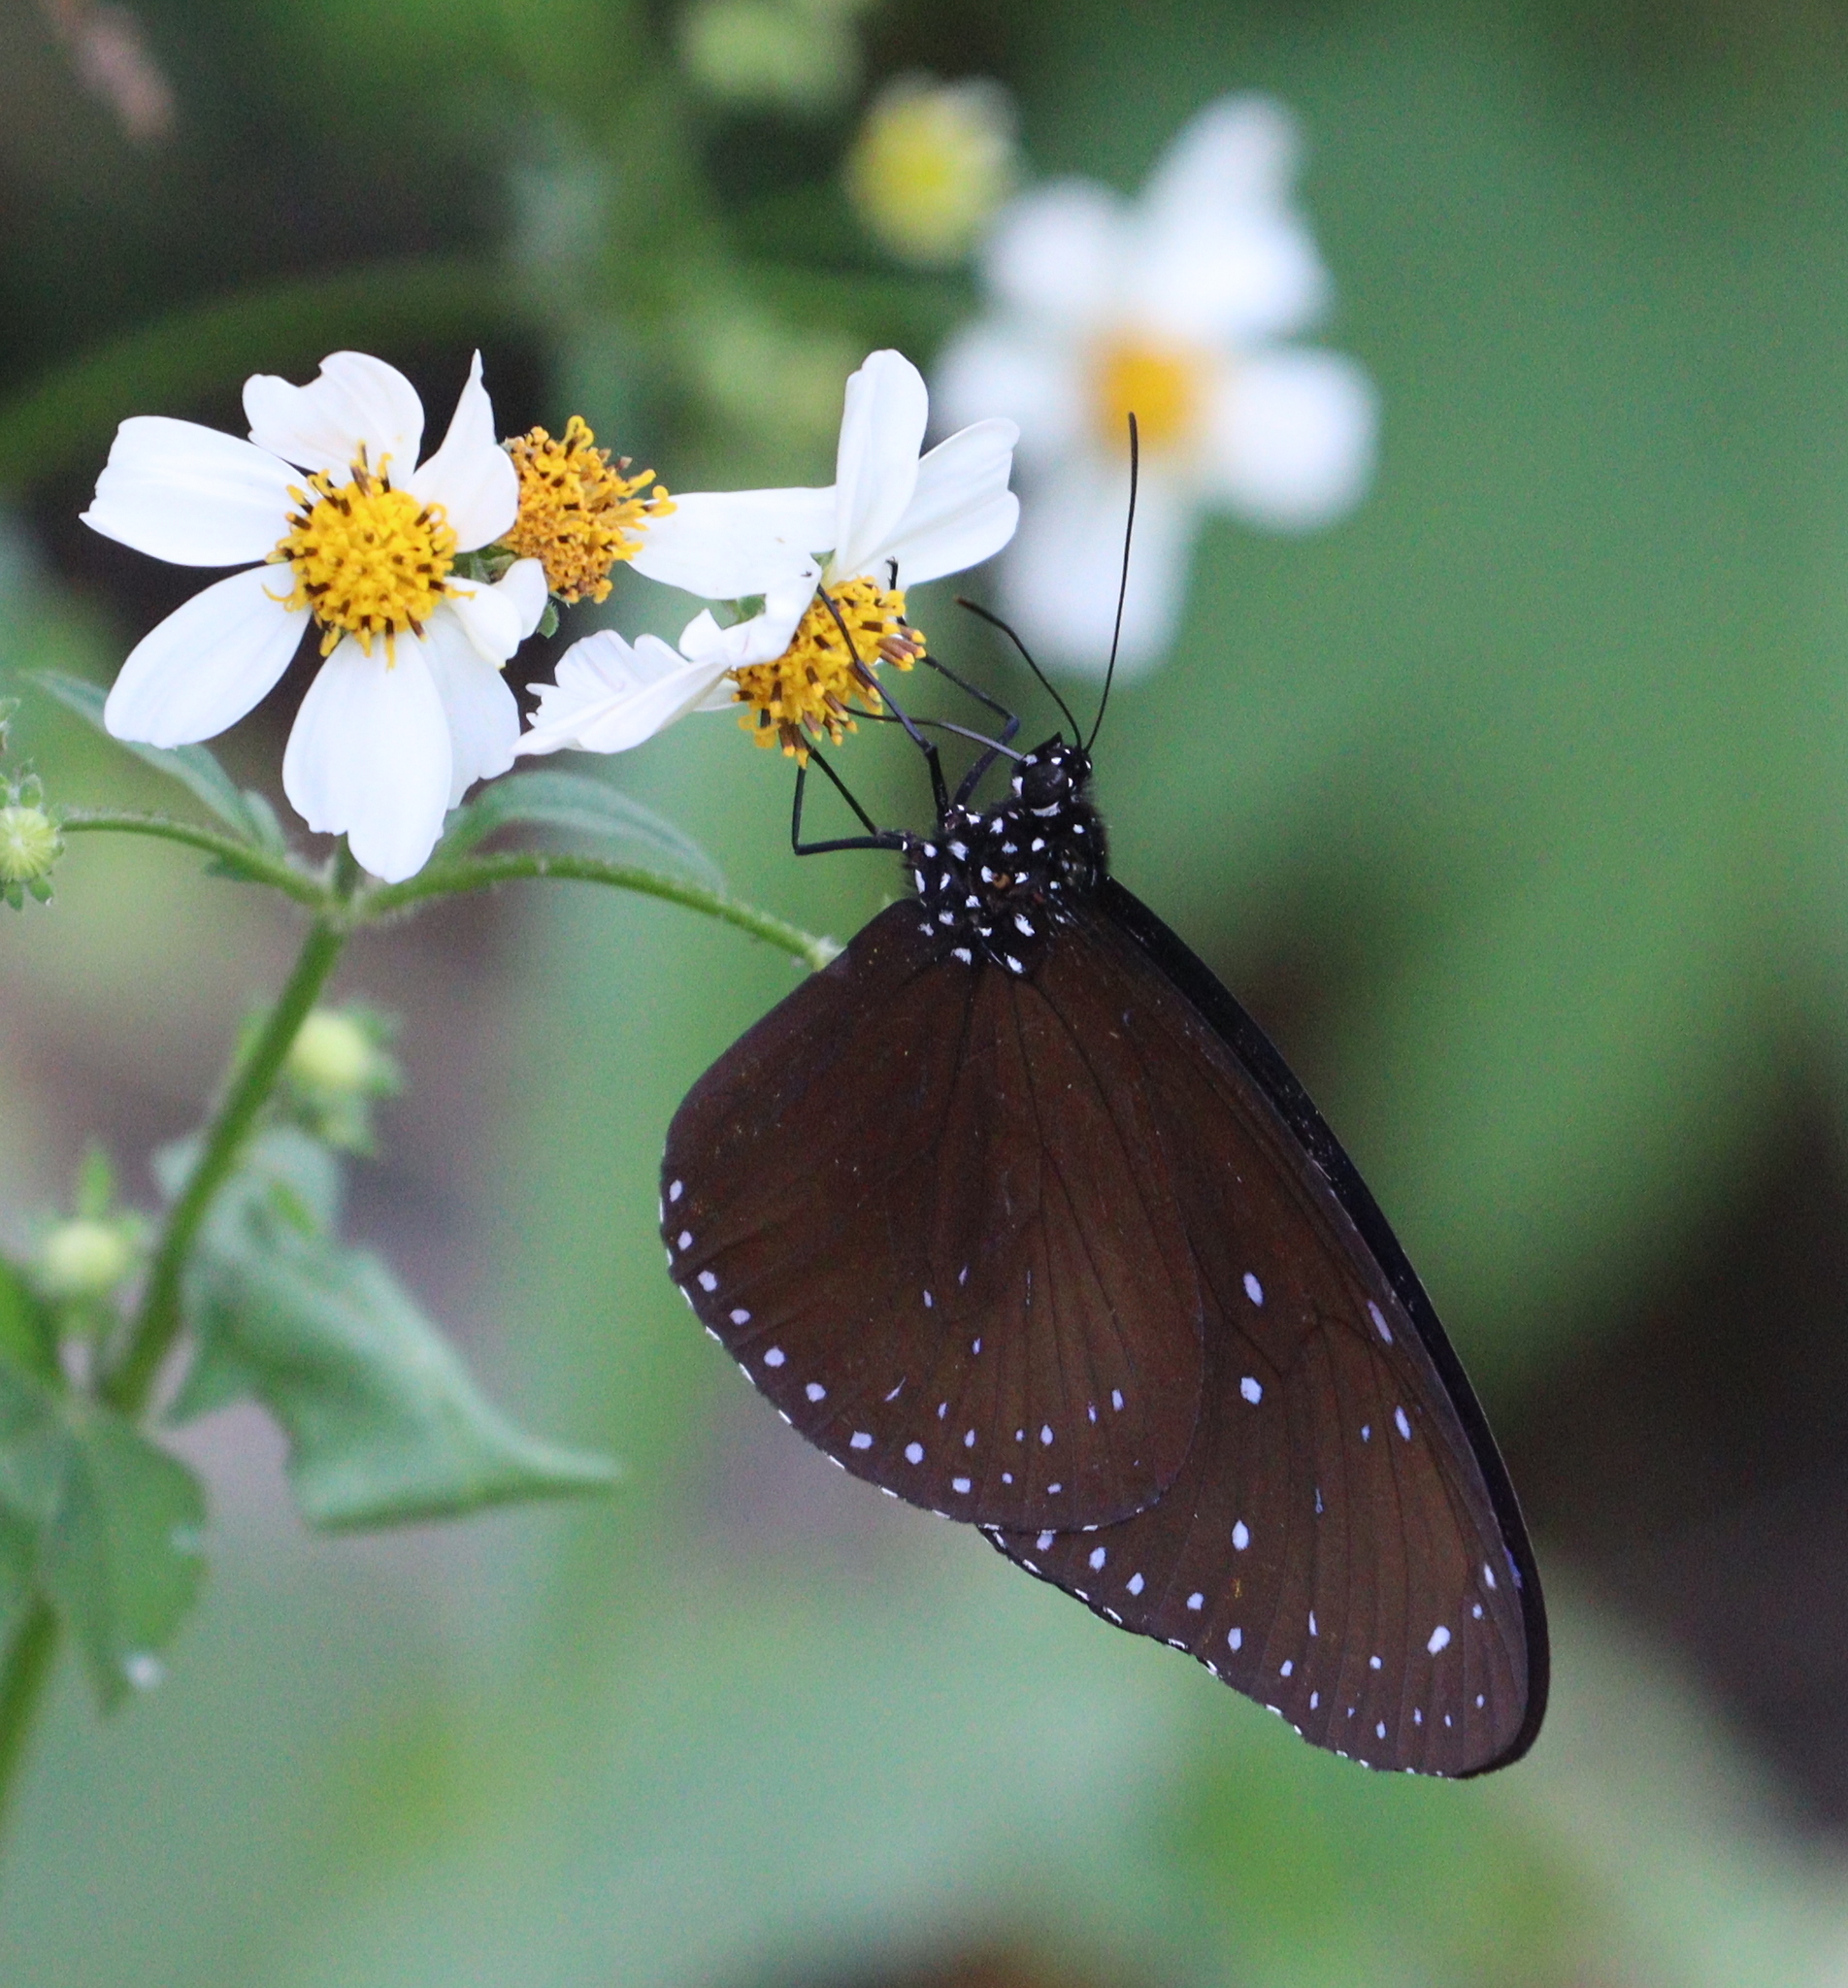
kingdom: Animalia
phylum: Arthropoda
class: Insecta
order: Lepidoptera
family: Nymphalidae
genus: Euploea
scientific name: Euploea mulciber
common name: Striped blue crow butterfly
